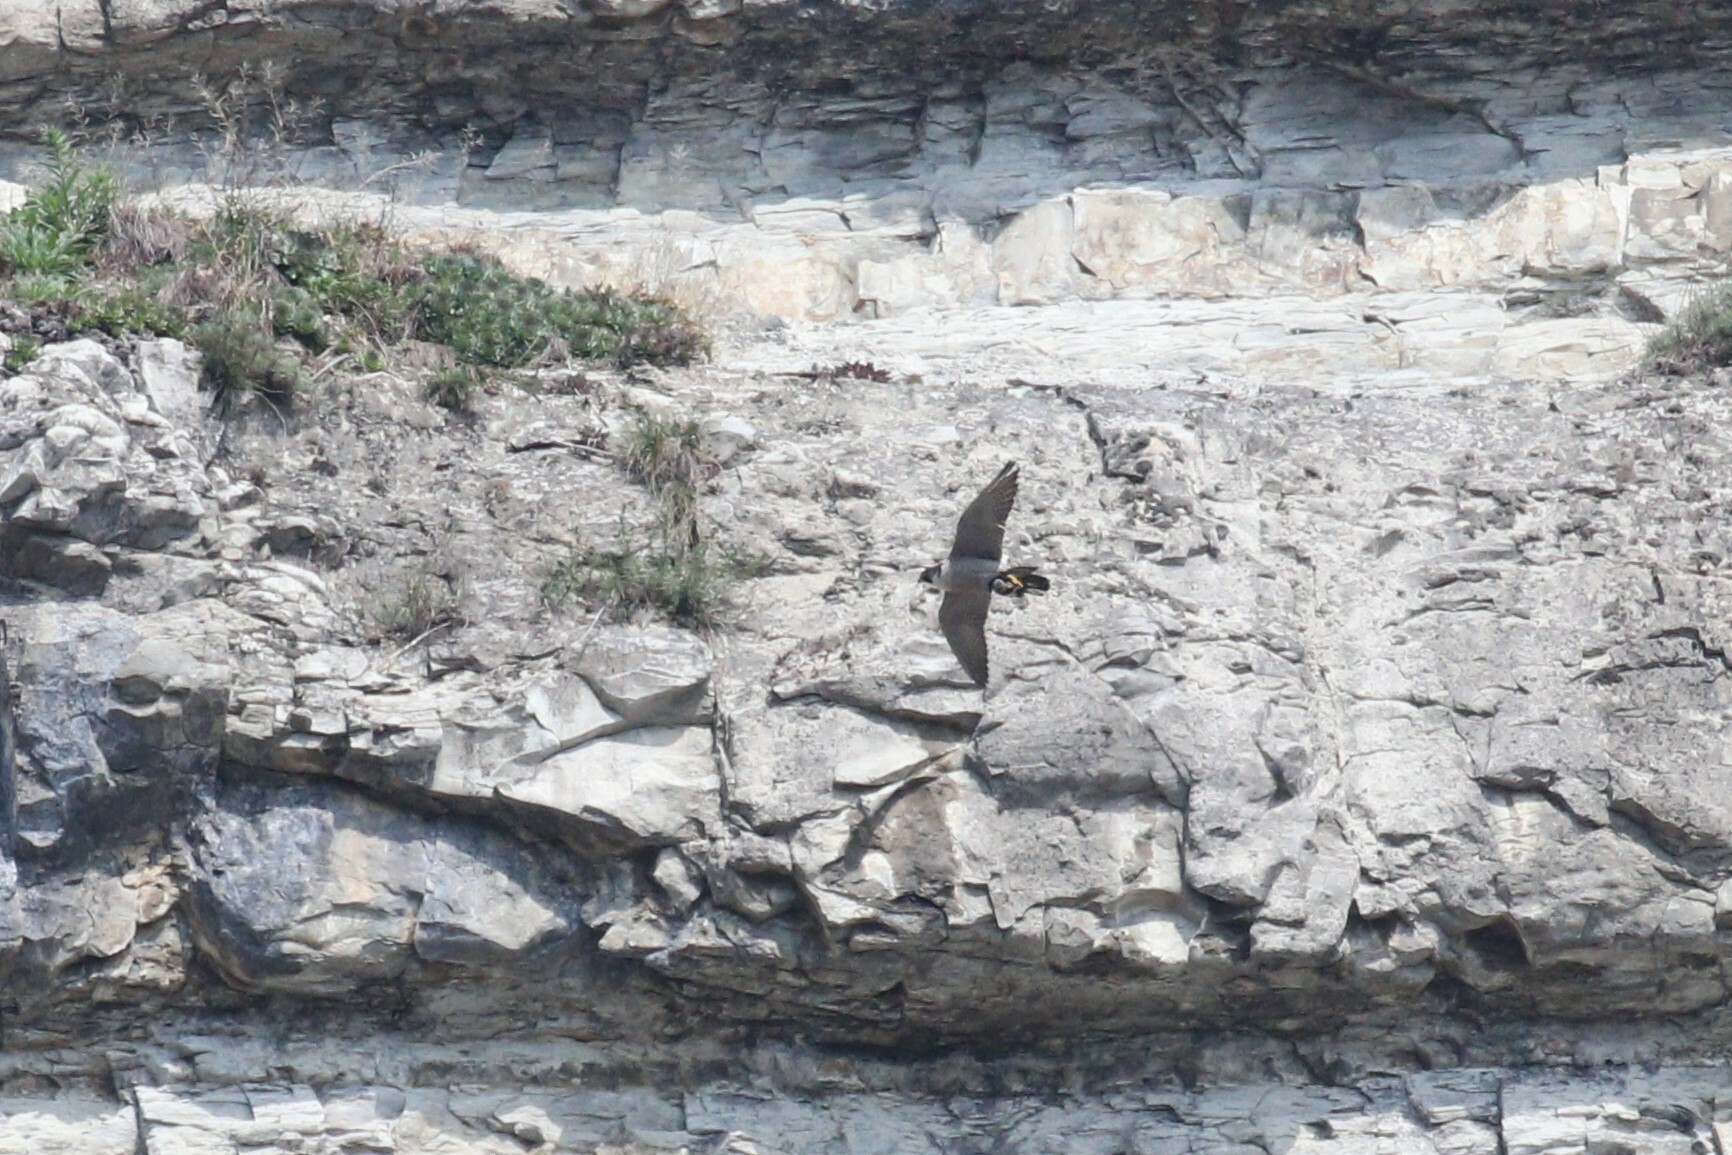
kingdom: Animalia
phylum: Chordata
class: Aves
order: Falconiformes
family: Falconidae
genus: Falco
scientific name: Falco peregrinus
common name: Peregrine falcon
